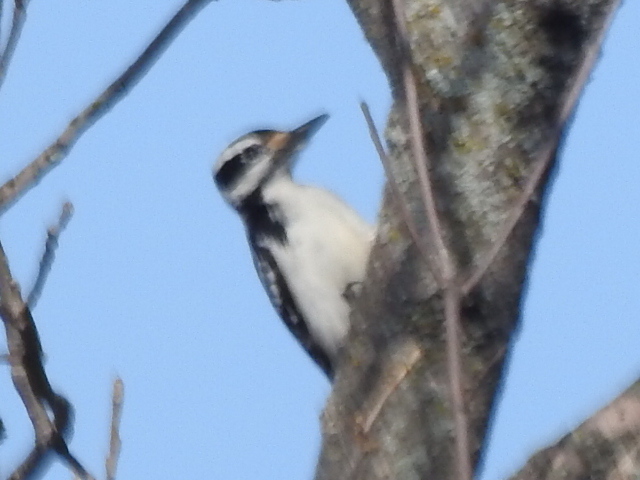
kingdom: Animalia
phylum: Chordata
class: Aves
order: Piciformes
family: Picidae
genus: Leuconotopicus
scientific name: Leuconotopicus villosus
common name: Hairy woodpecker
